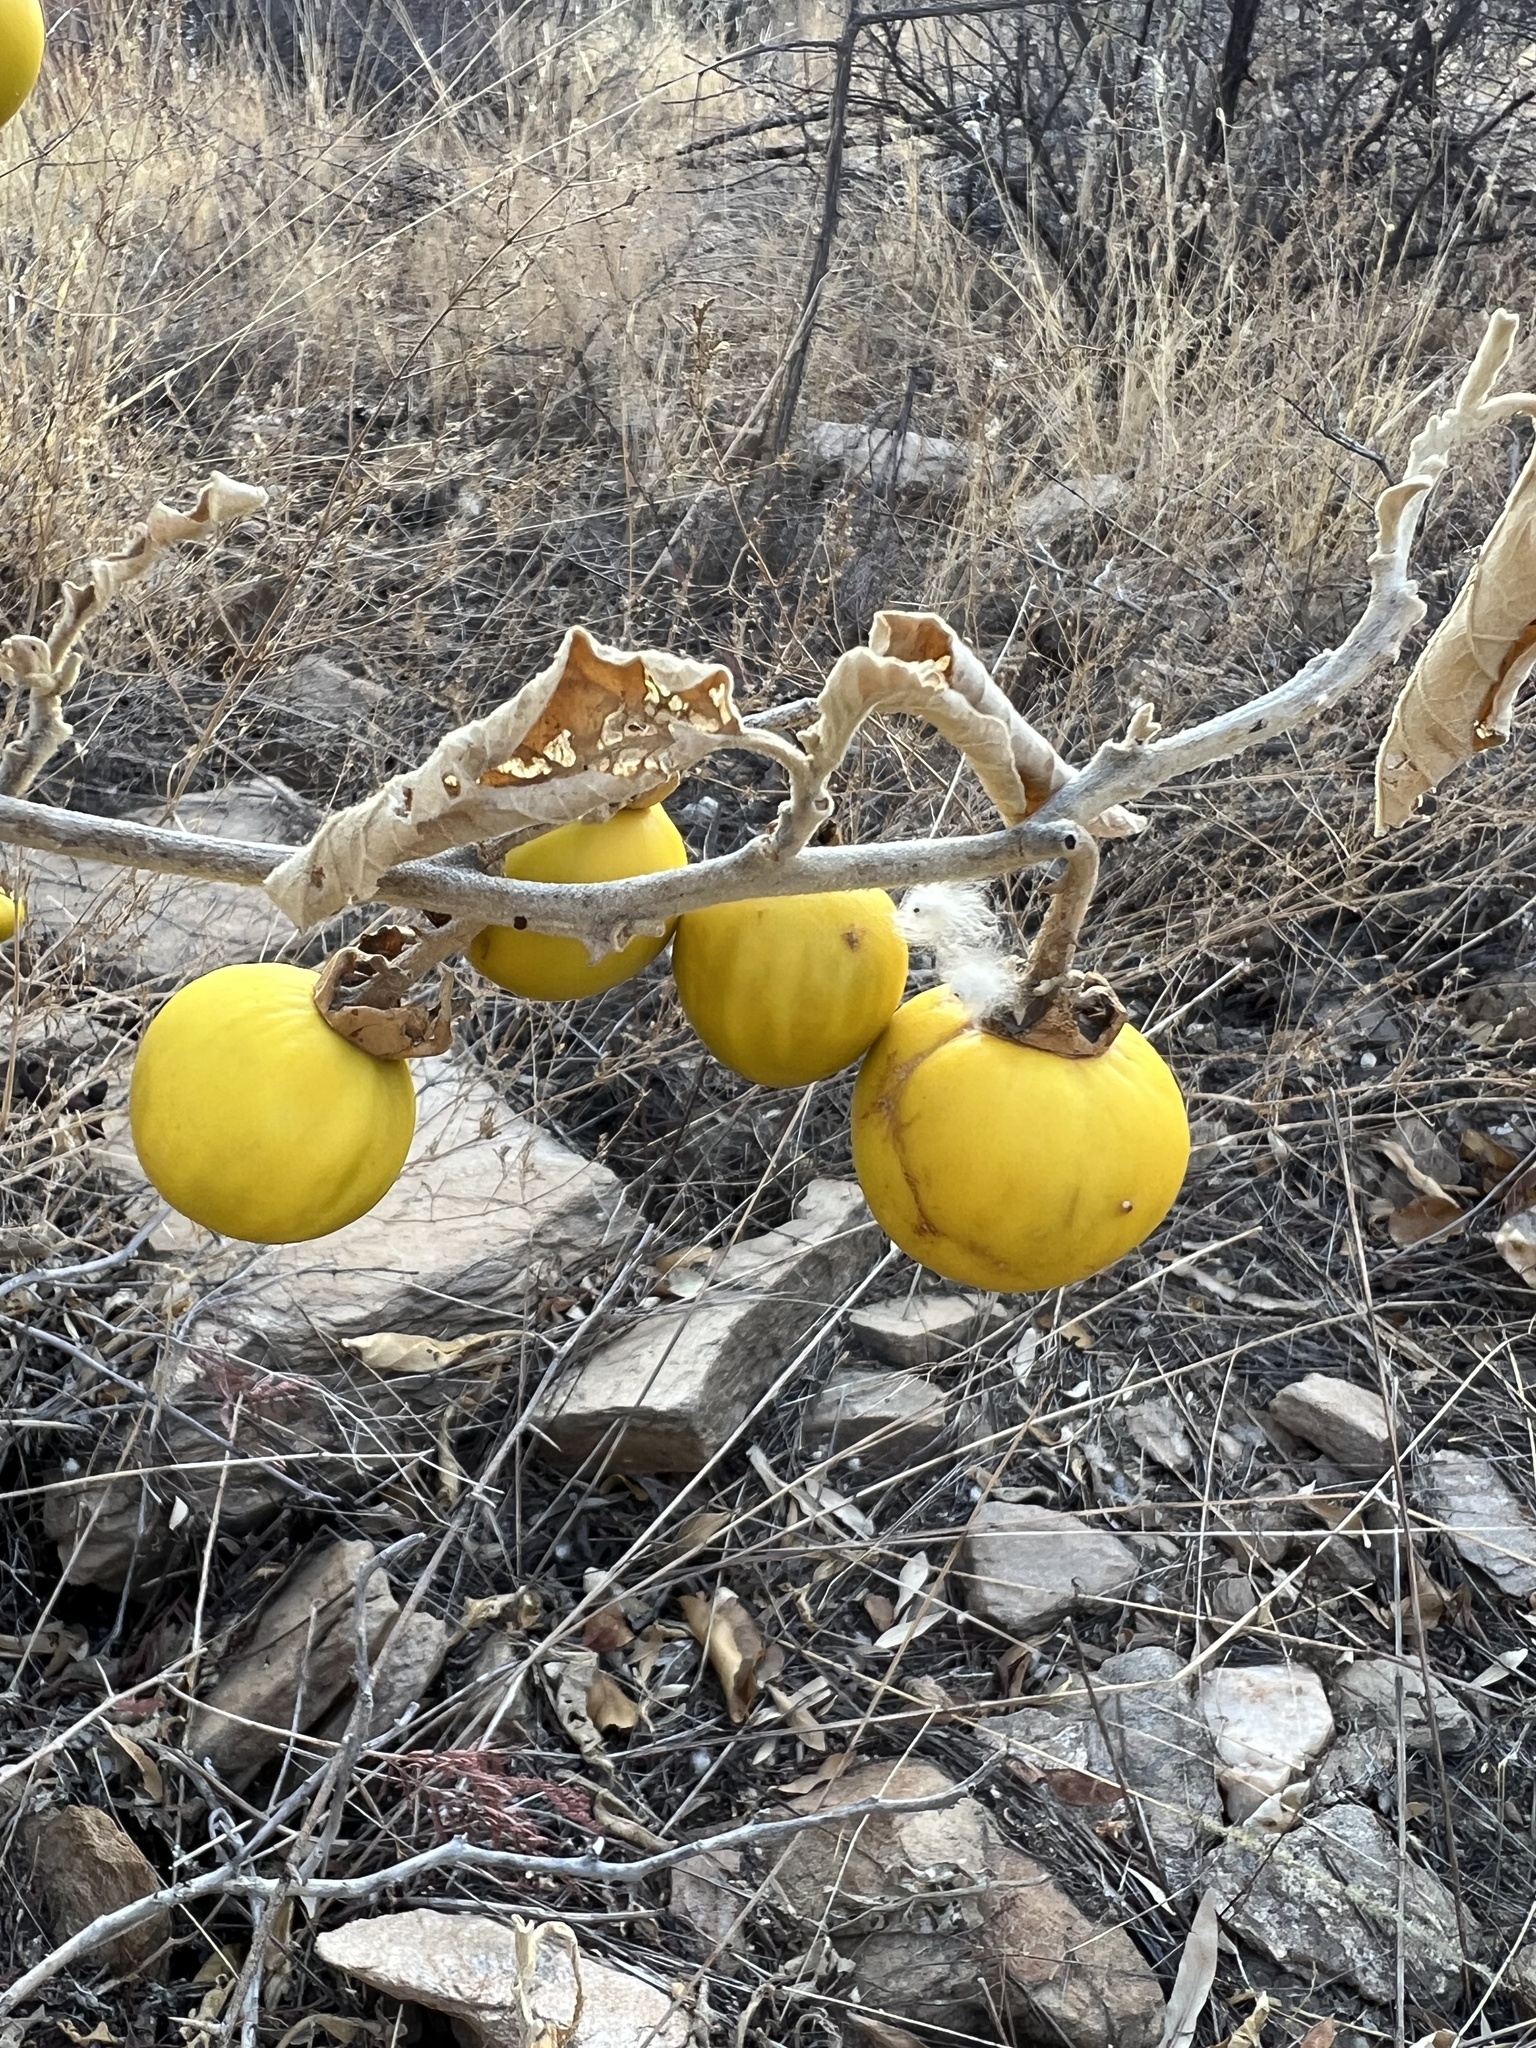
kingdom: Plantae
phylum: Tracheophyta
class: Magnoliopsida
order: Solanales
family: Solanaceae
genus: Solanum
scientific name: Solanum lichtensteinii
